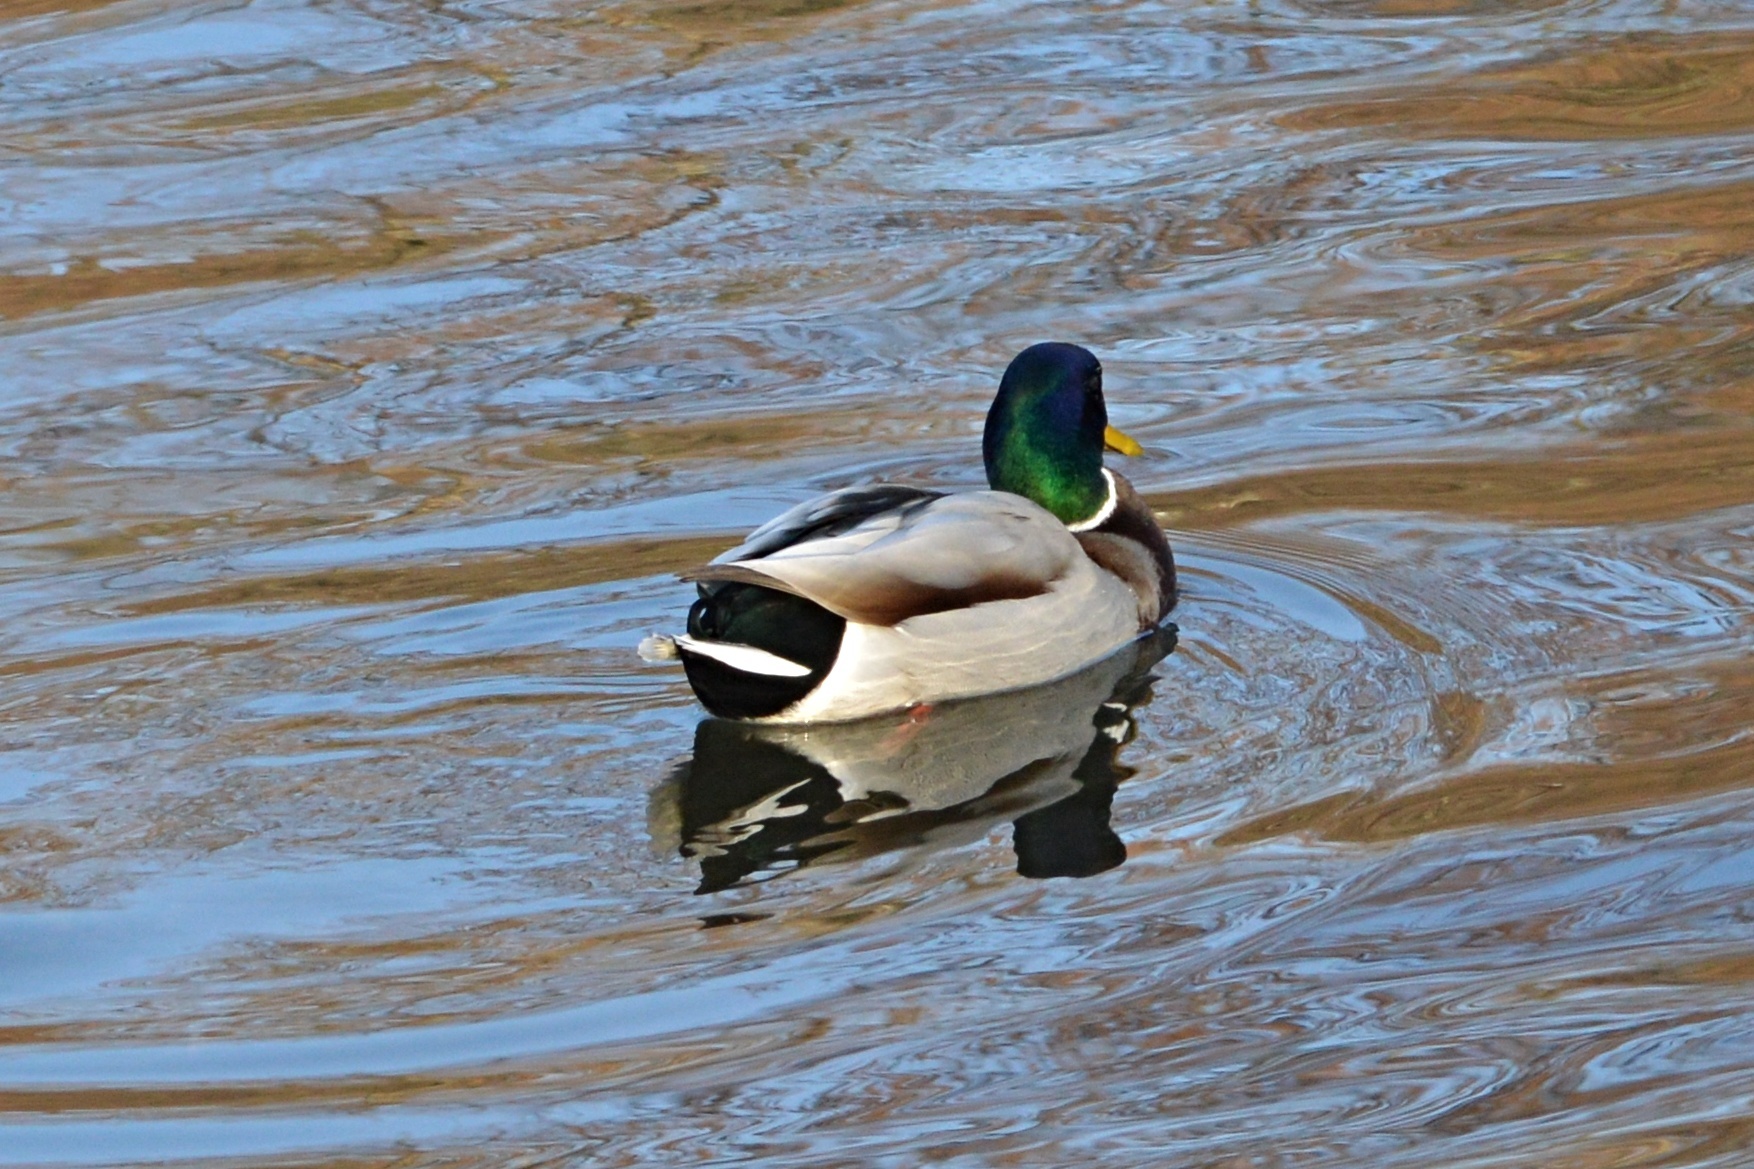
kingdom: Animalia
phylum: Chordata
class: Aves
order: Anseriformes
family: Anatidae
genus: Anas
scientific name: Anas platyrhynchos
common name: Mallard
